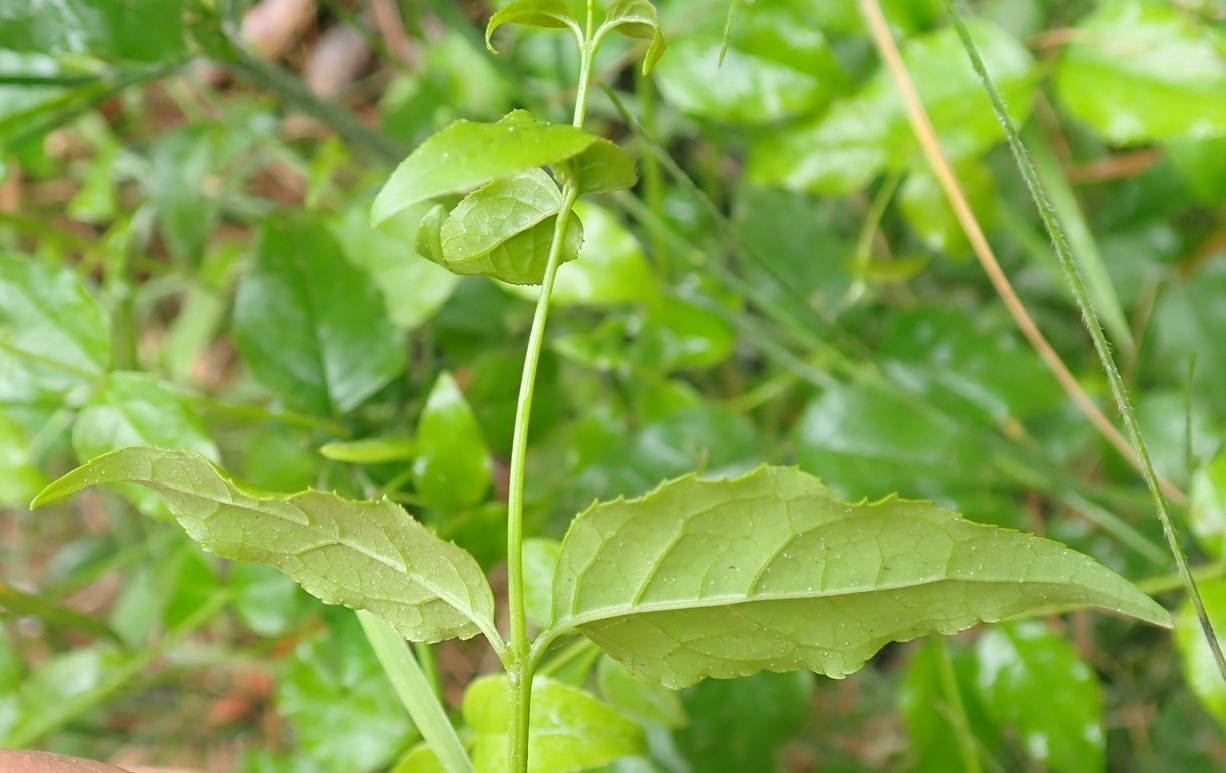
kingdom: Plantae
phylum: Tracheophyta
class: Magnoliopsida
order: Lamiales
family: Stilbaceae
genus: Halleria
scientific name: Halleria lucida
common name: Tree fuschia
